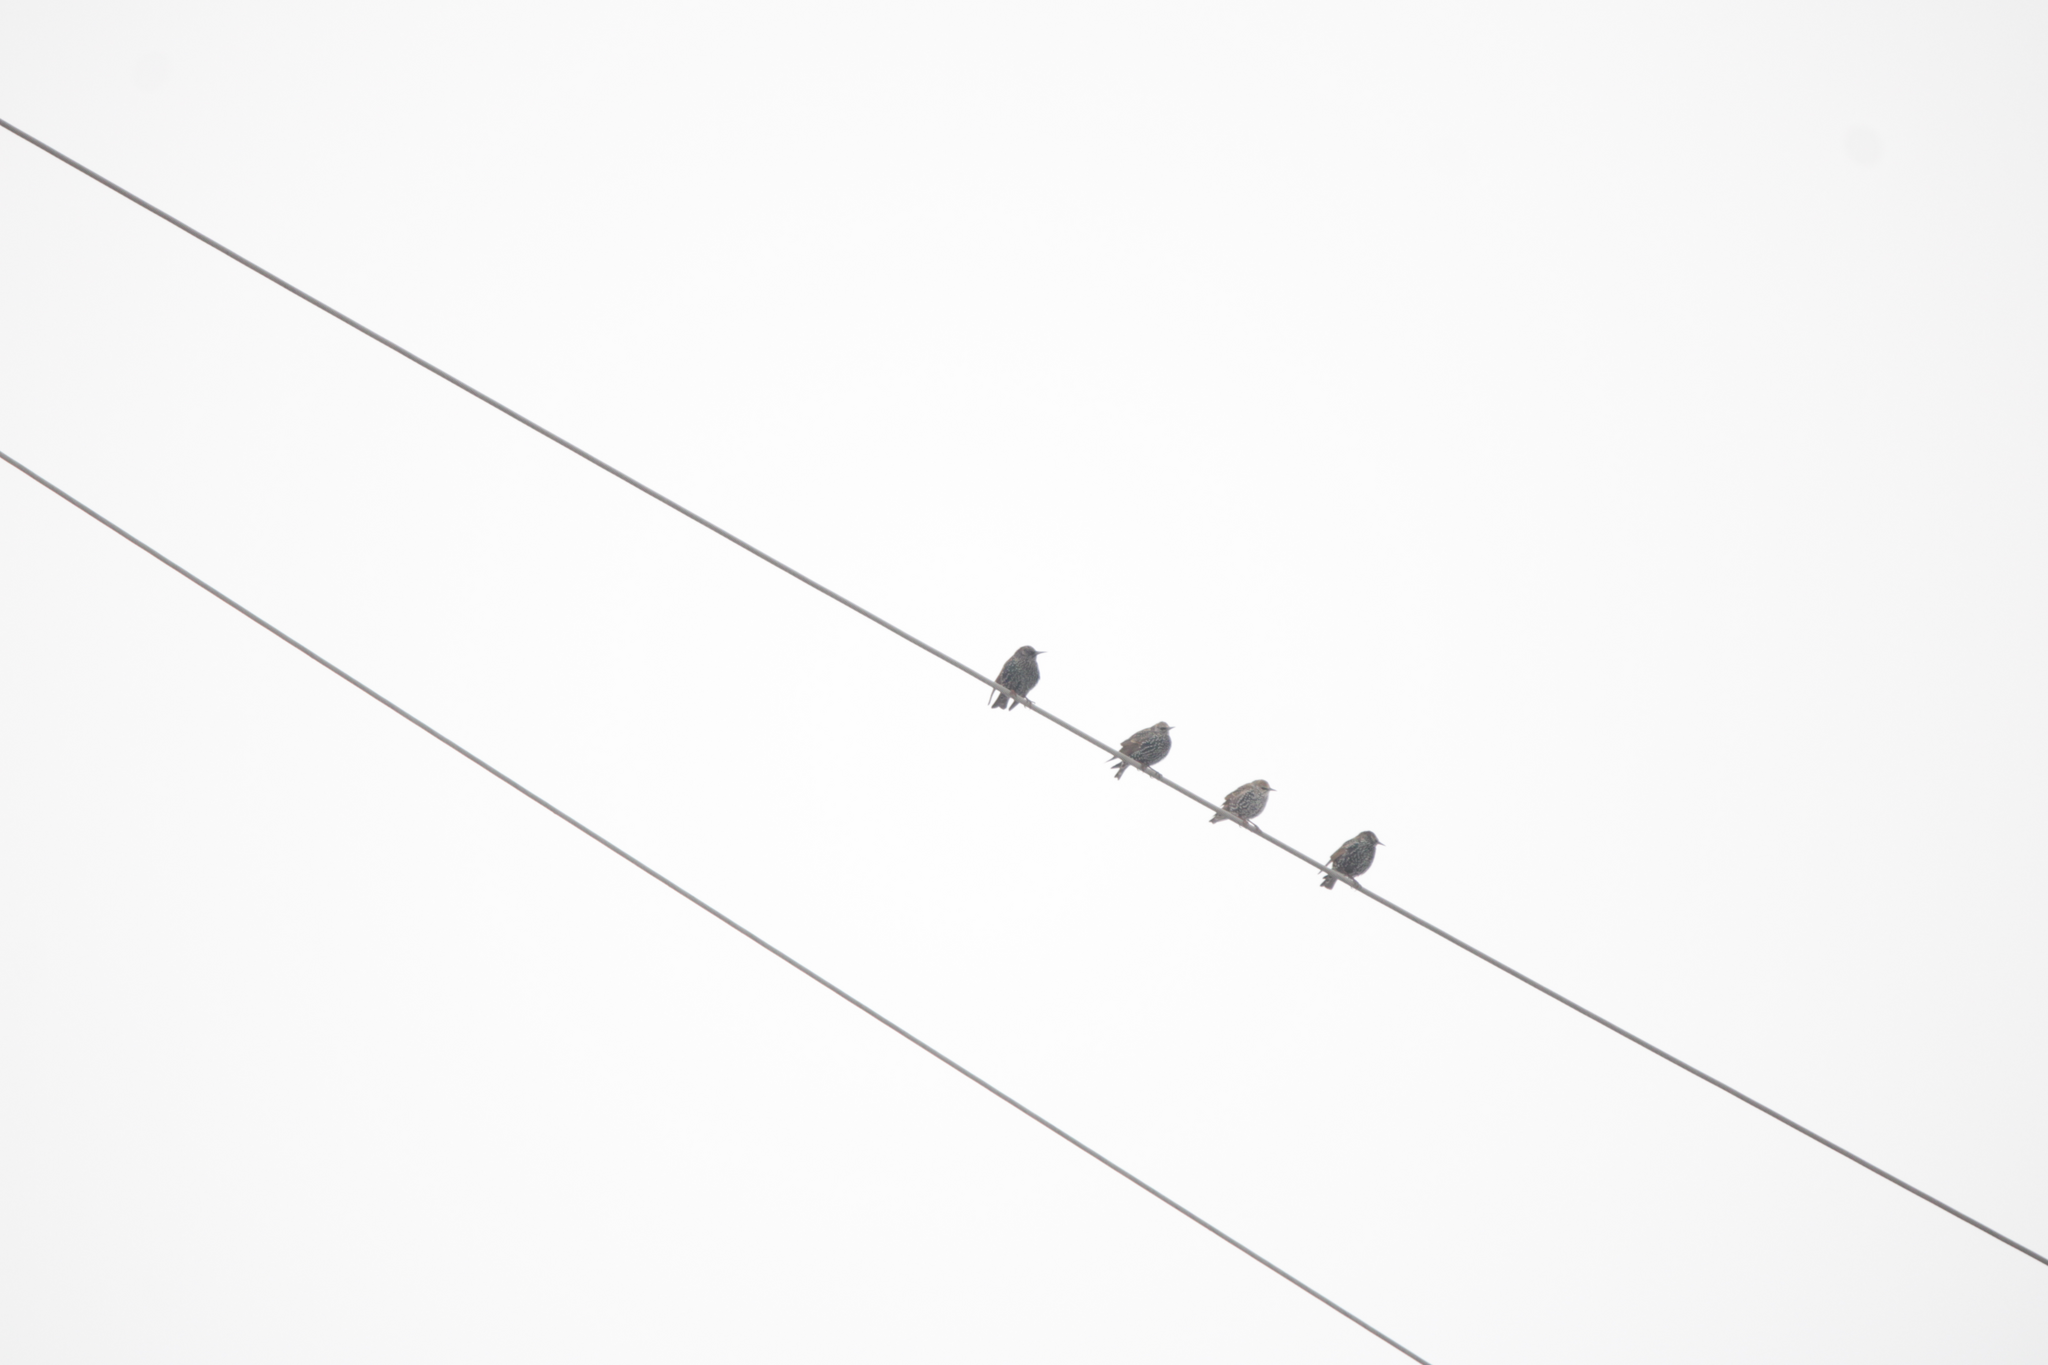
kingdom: Animalia
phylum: Chordata
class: Aves
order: Passeriformes
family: Sturnidae
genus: Sturnus
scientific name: Sturnus vulgaris
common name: Common starling
